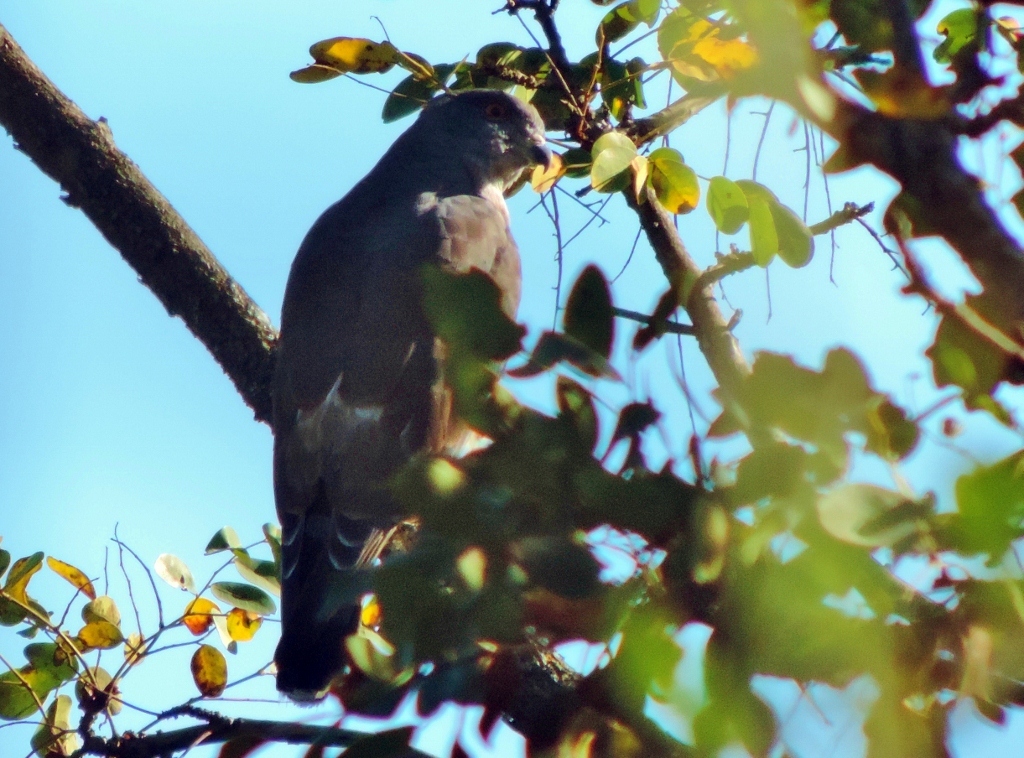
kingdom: Animalia
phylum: Chordata
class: Aves
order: Accipitriformes
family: Accipitridae
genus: Aviceda
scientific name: Aviceda cuculoides
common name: African cuckoo-hawk
